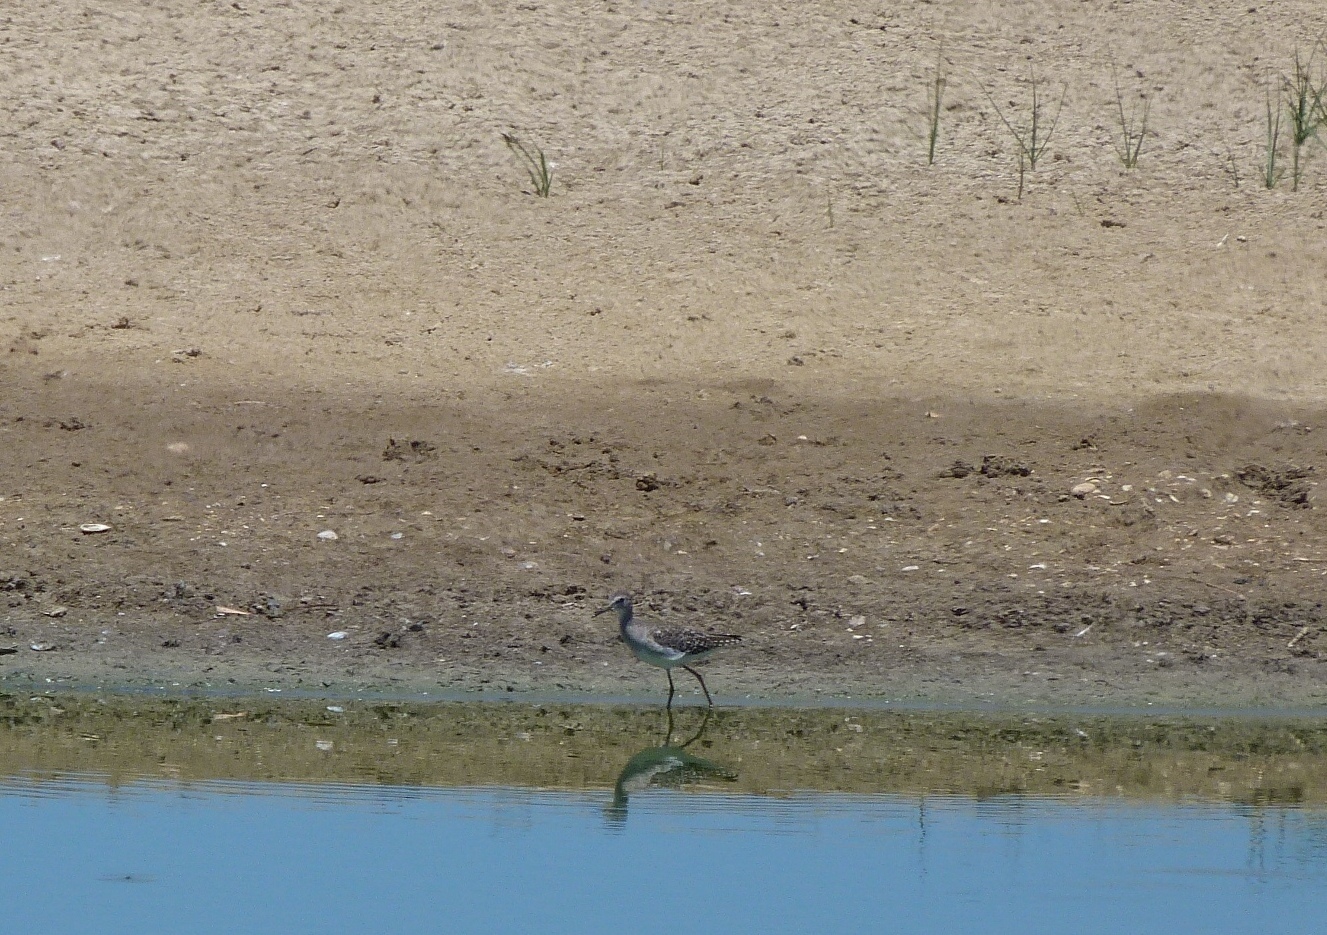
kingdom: Animalia
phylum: Chordata
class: Aves
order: Charadriiformes
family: Scolopacidae
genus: Tringa
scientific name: Tringa glareola
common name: Wood sandpiper
